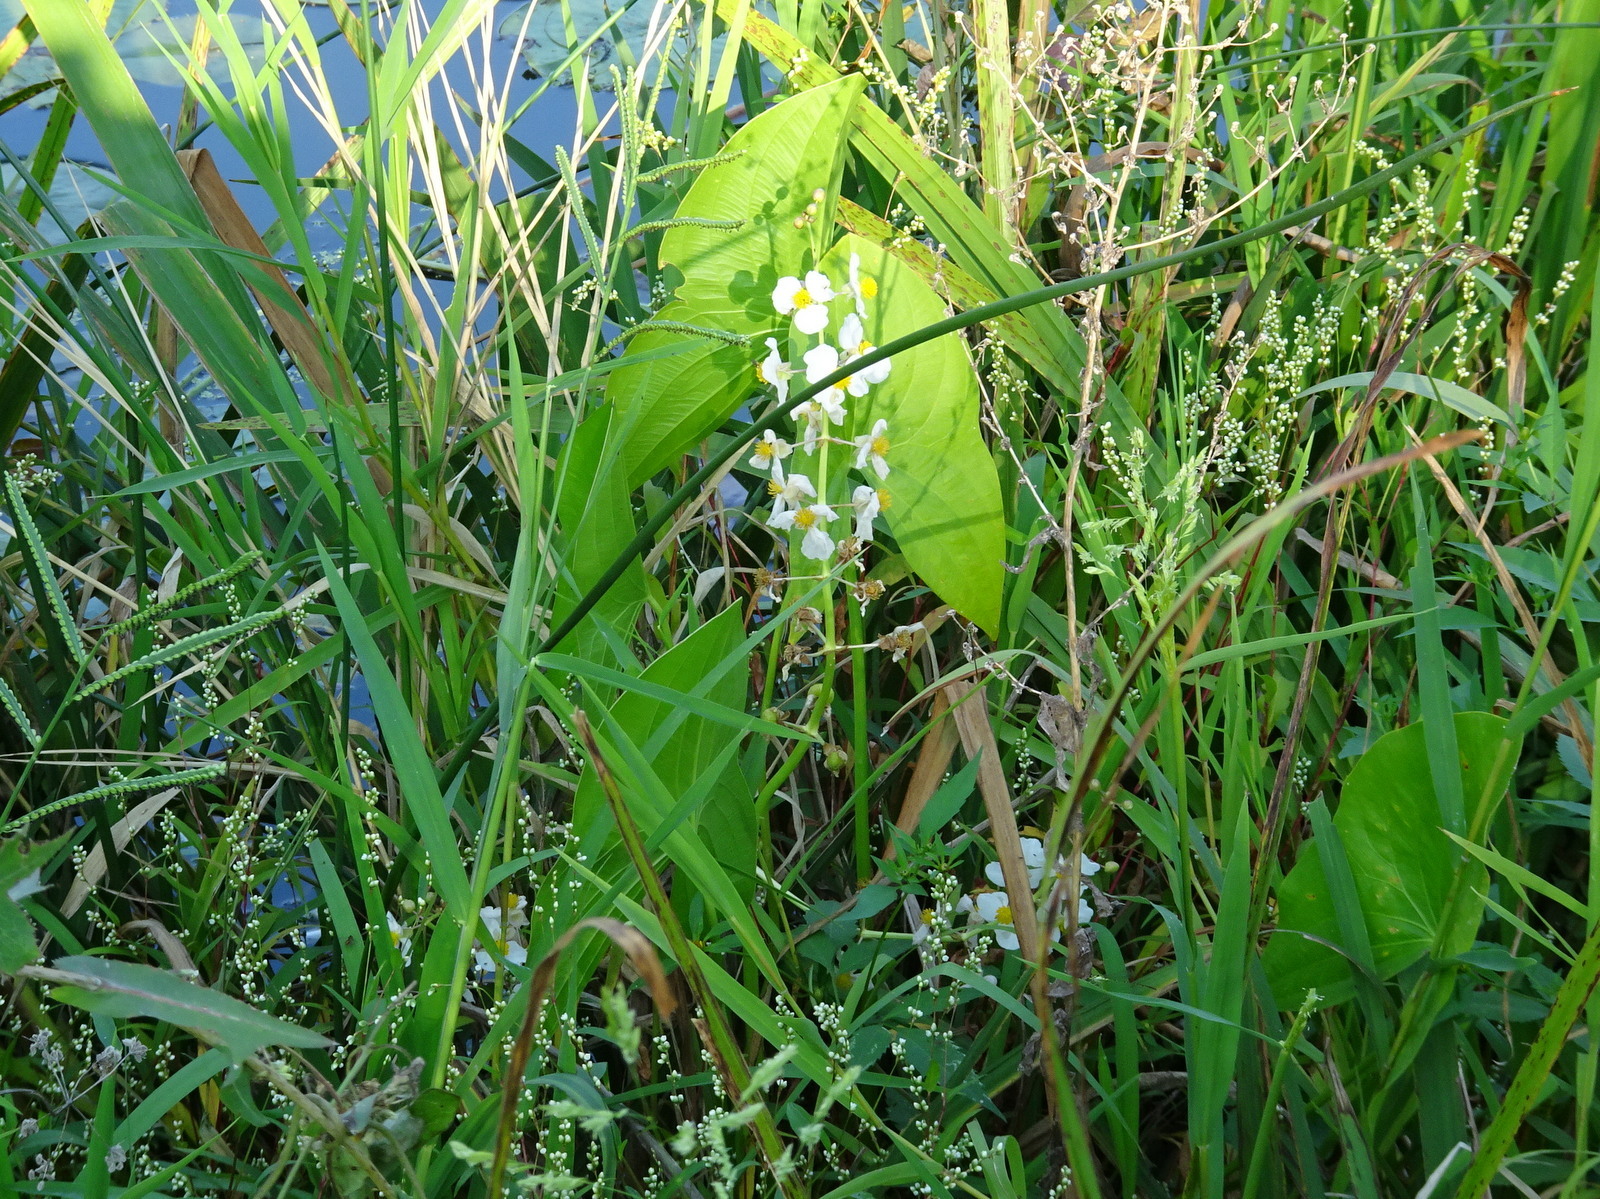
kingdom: Plantae
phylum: Tracheophyta
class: Liliopsida
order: Alismatales
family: Alismataceae
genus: Sagittaria
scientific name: Sagittaria latifolia
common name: Duck-potato
